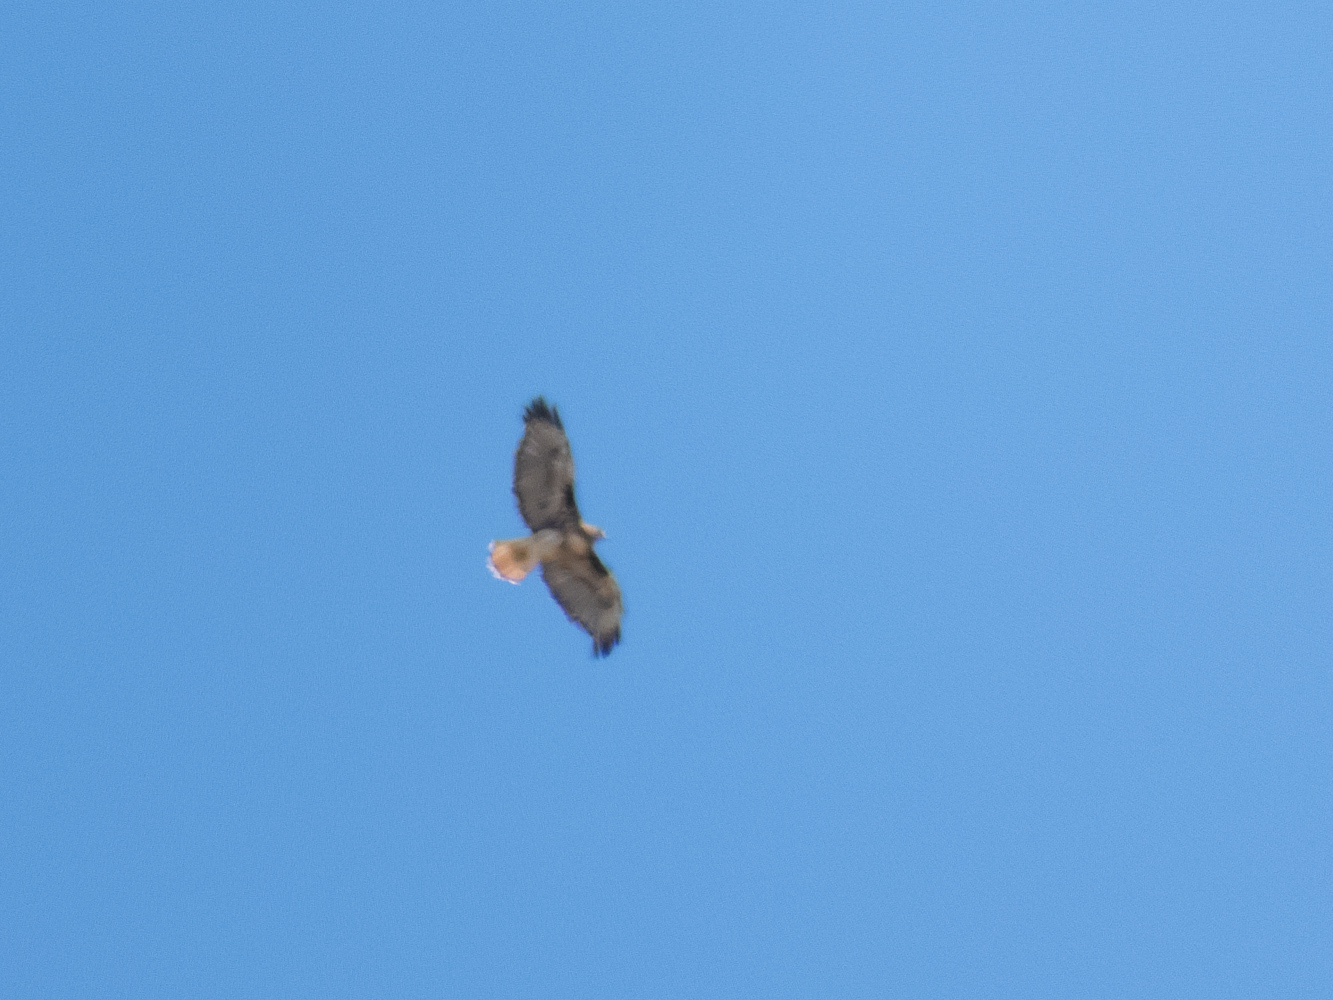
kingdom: Animalia
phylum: Chordata
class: Aves
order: Accipitriformes
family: Accipitridae
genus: Buteo
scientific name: Buteo jamaicensis
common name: Red-tailed hawk
